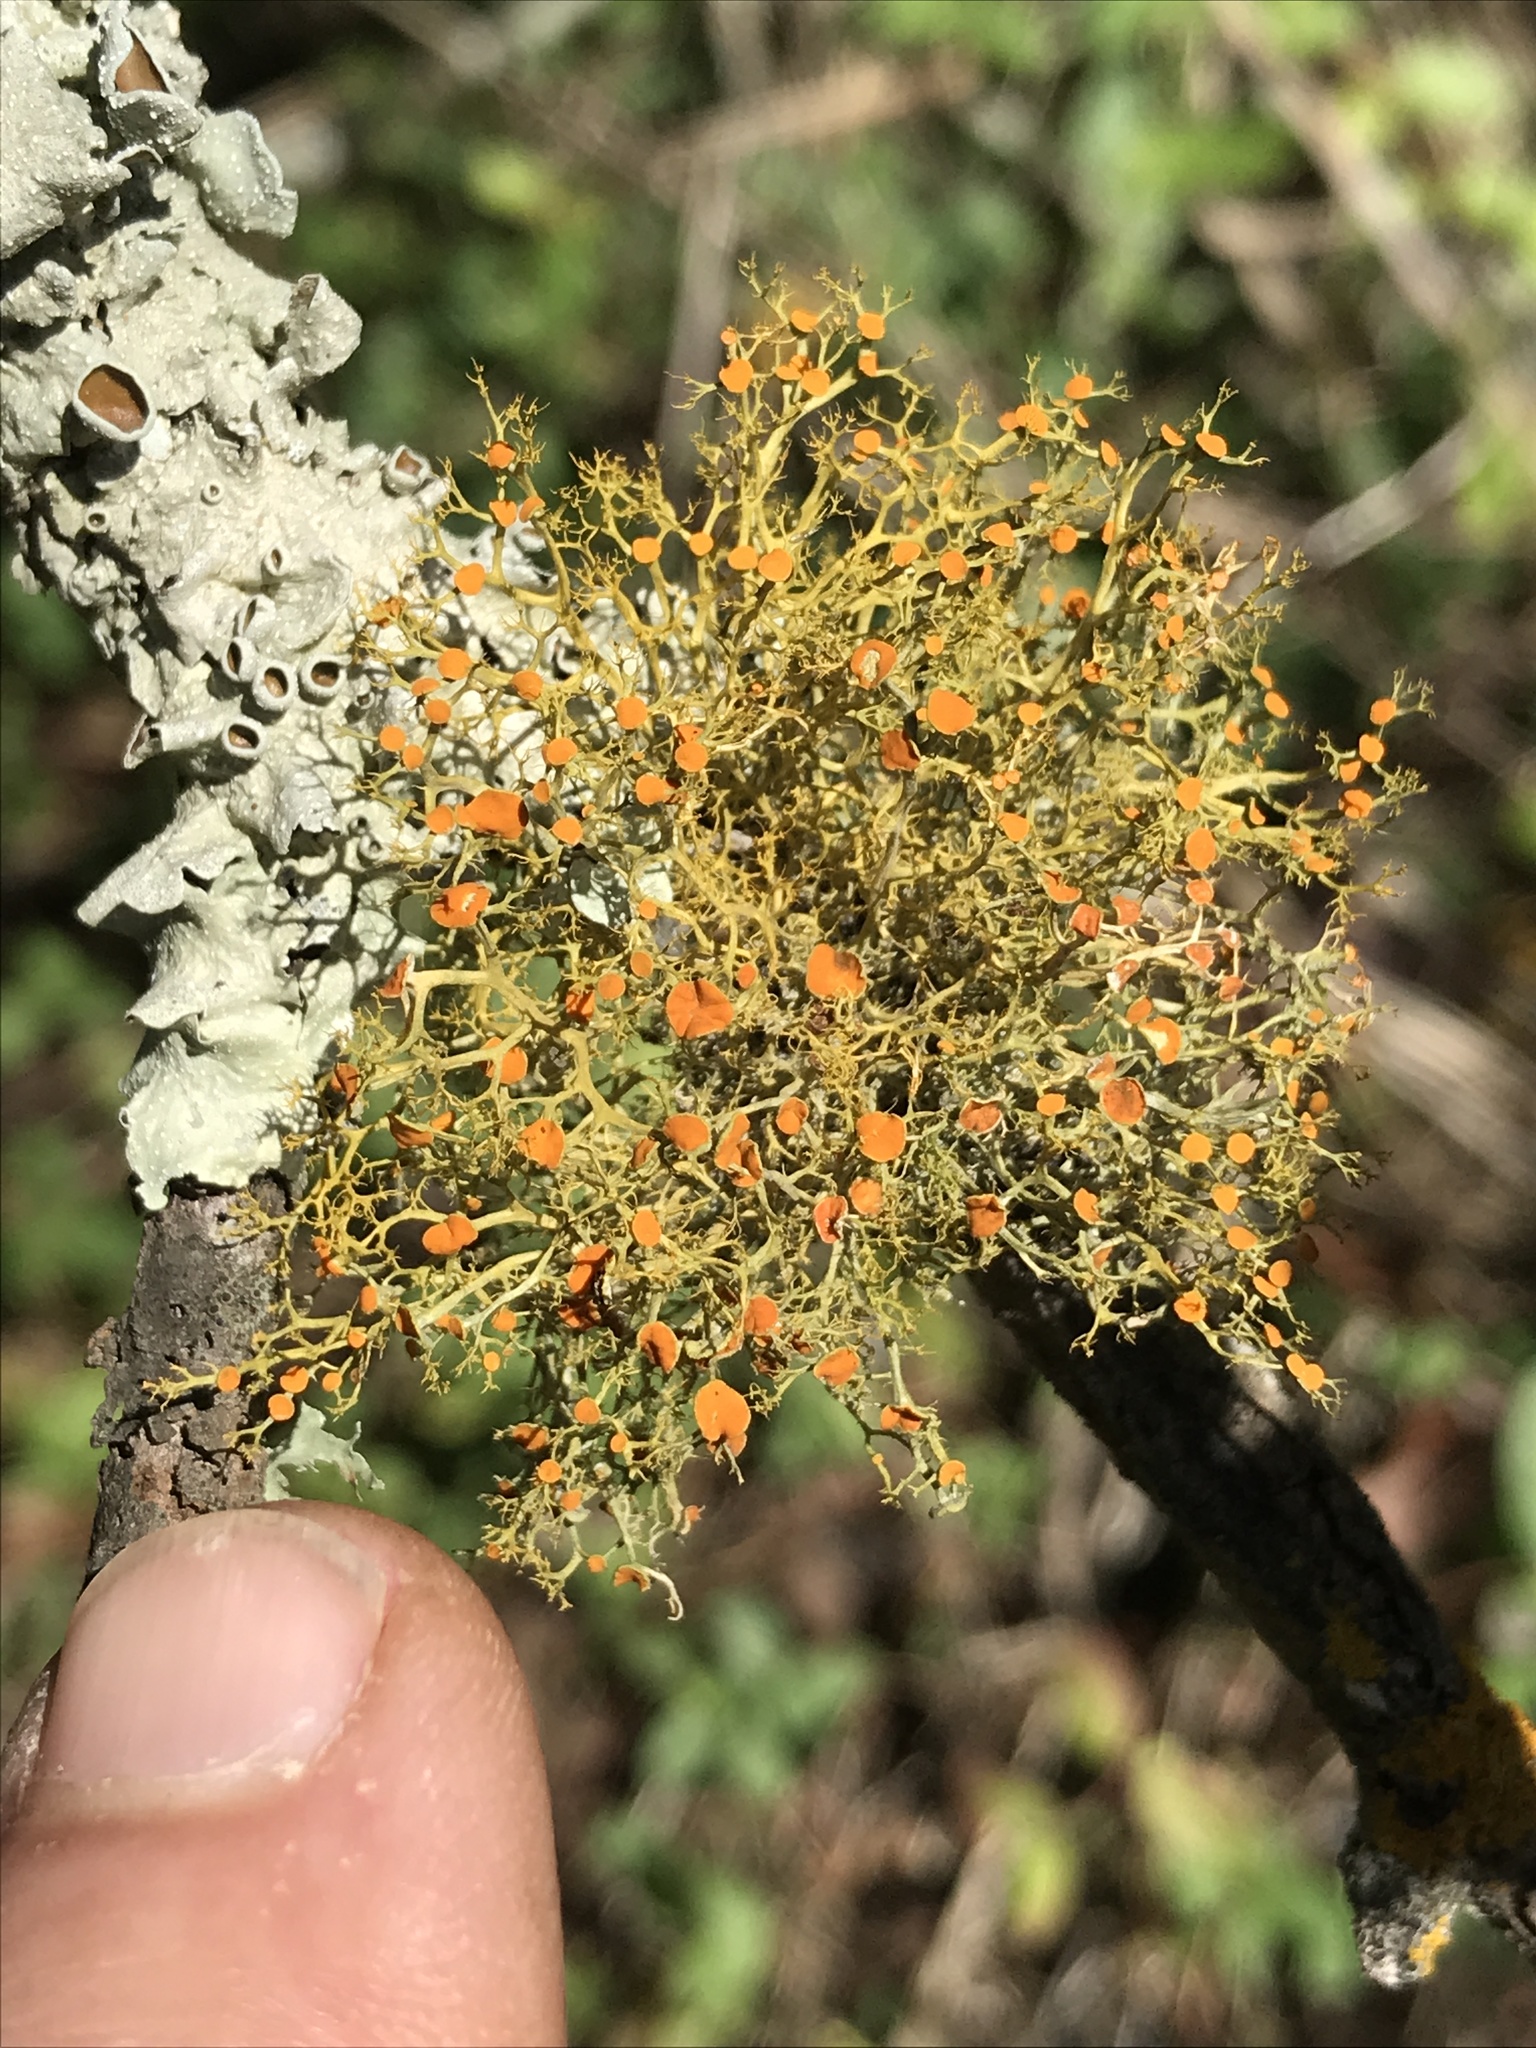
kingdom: Fungi
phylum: Ascomycota
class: Lecanoromycetes
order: Teloschistales
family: Teloschistaceae
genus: Teloschistes
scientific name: Teloschistes exilis
